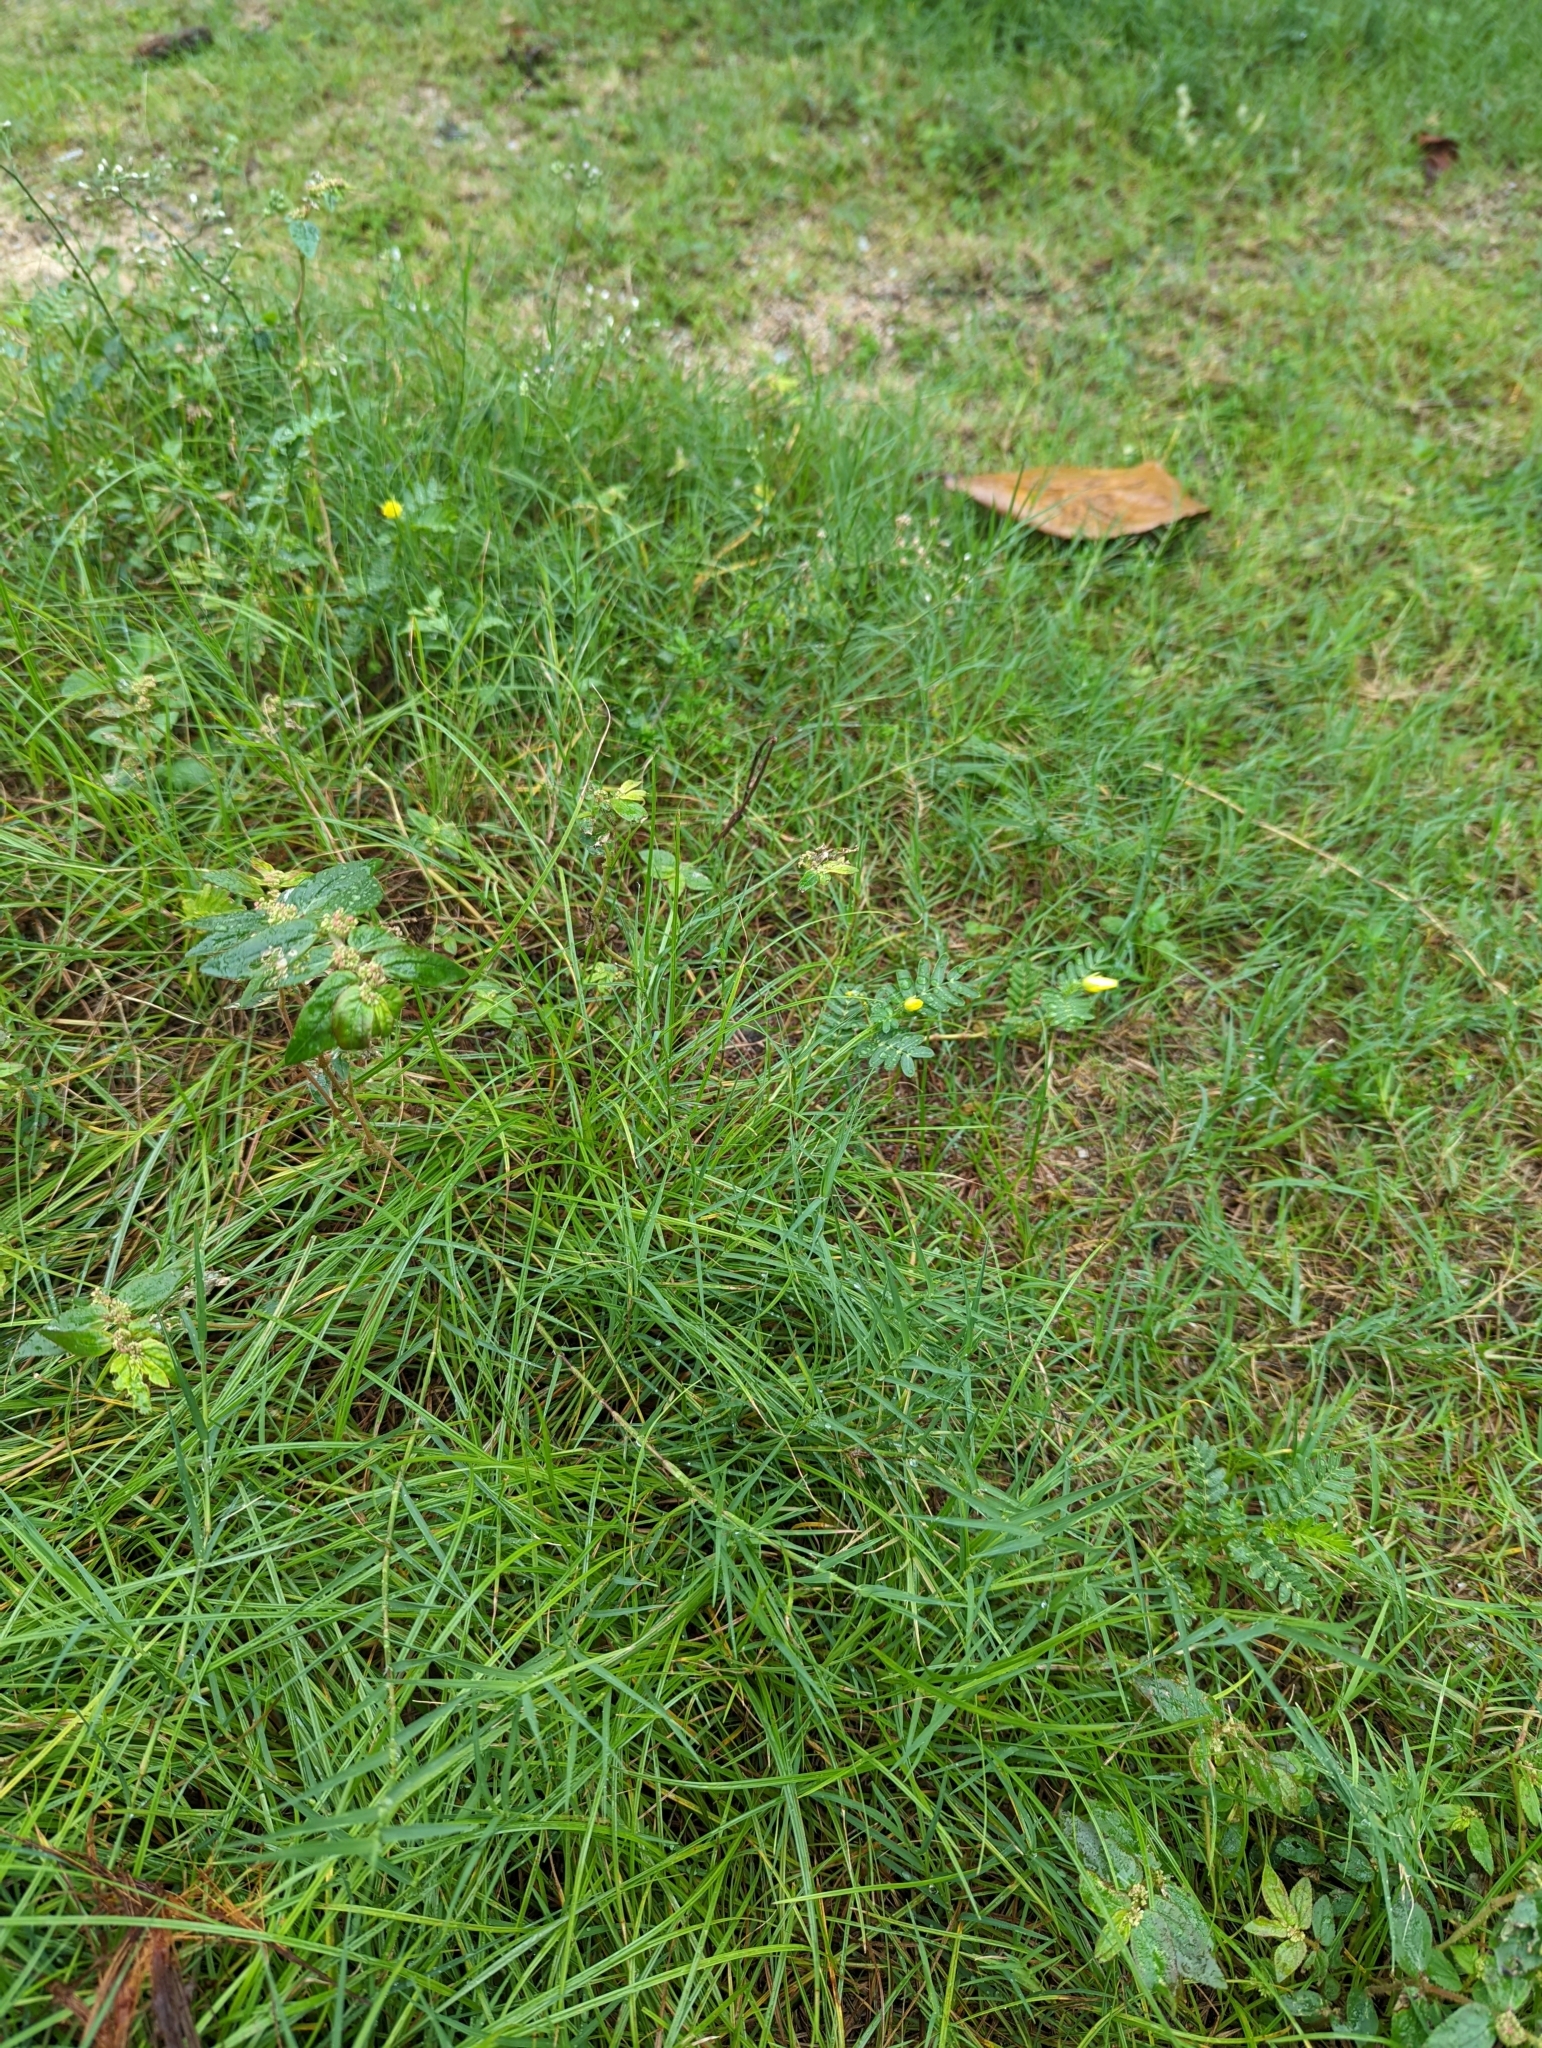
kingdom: Plantae
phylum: Tracheophyta
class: Magnoliopsida
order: Zygophyllales
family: Zygophyllaceae
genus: Tribulus
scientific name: Tribulus terrestris
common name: Puncturevine
